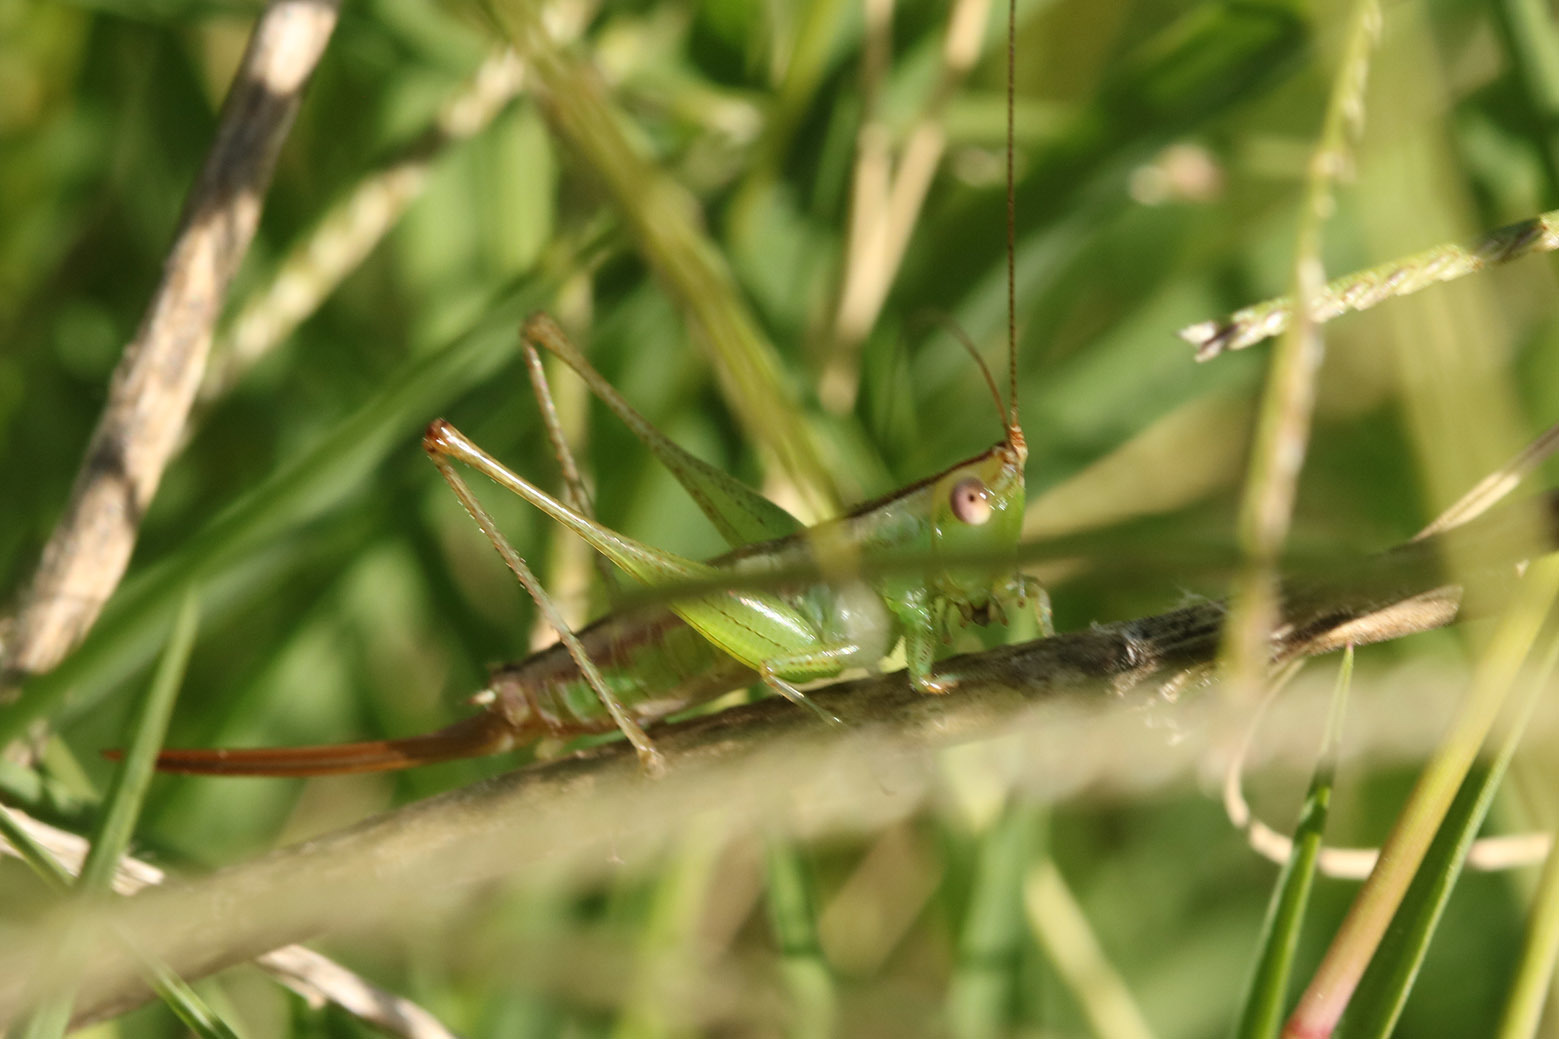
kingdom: Animalia
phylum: Arthropoda
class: Insecta
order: Orthoptera
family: Tettigoniidae
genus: Conocephalus
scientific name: Conocephalus doryphorus
